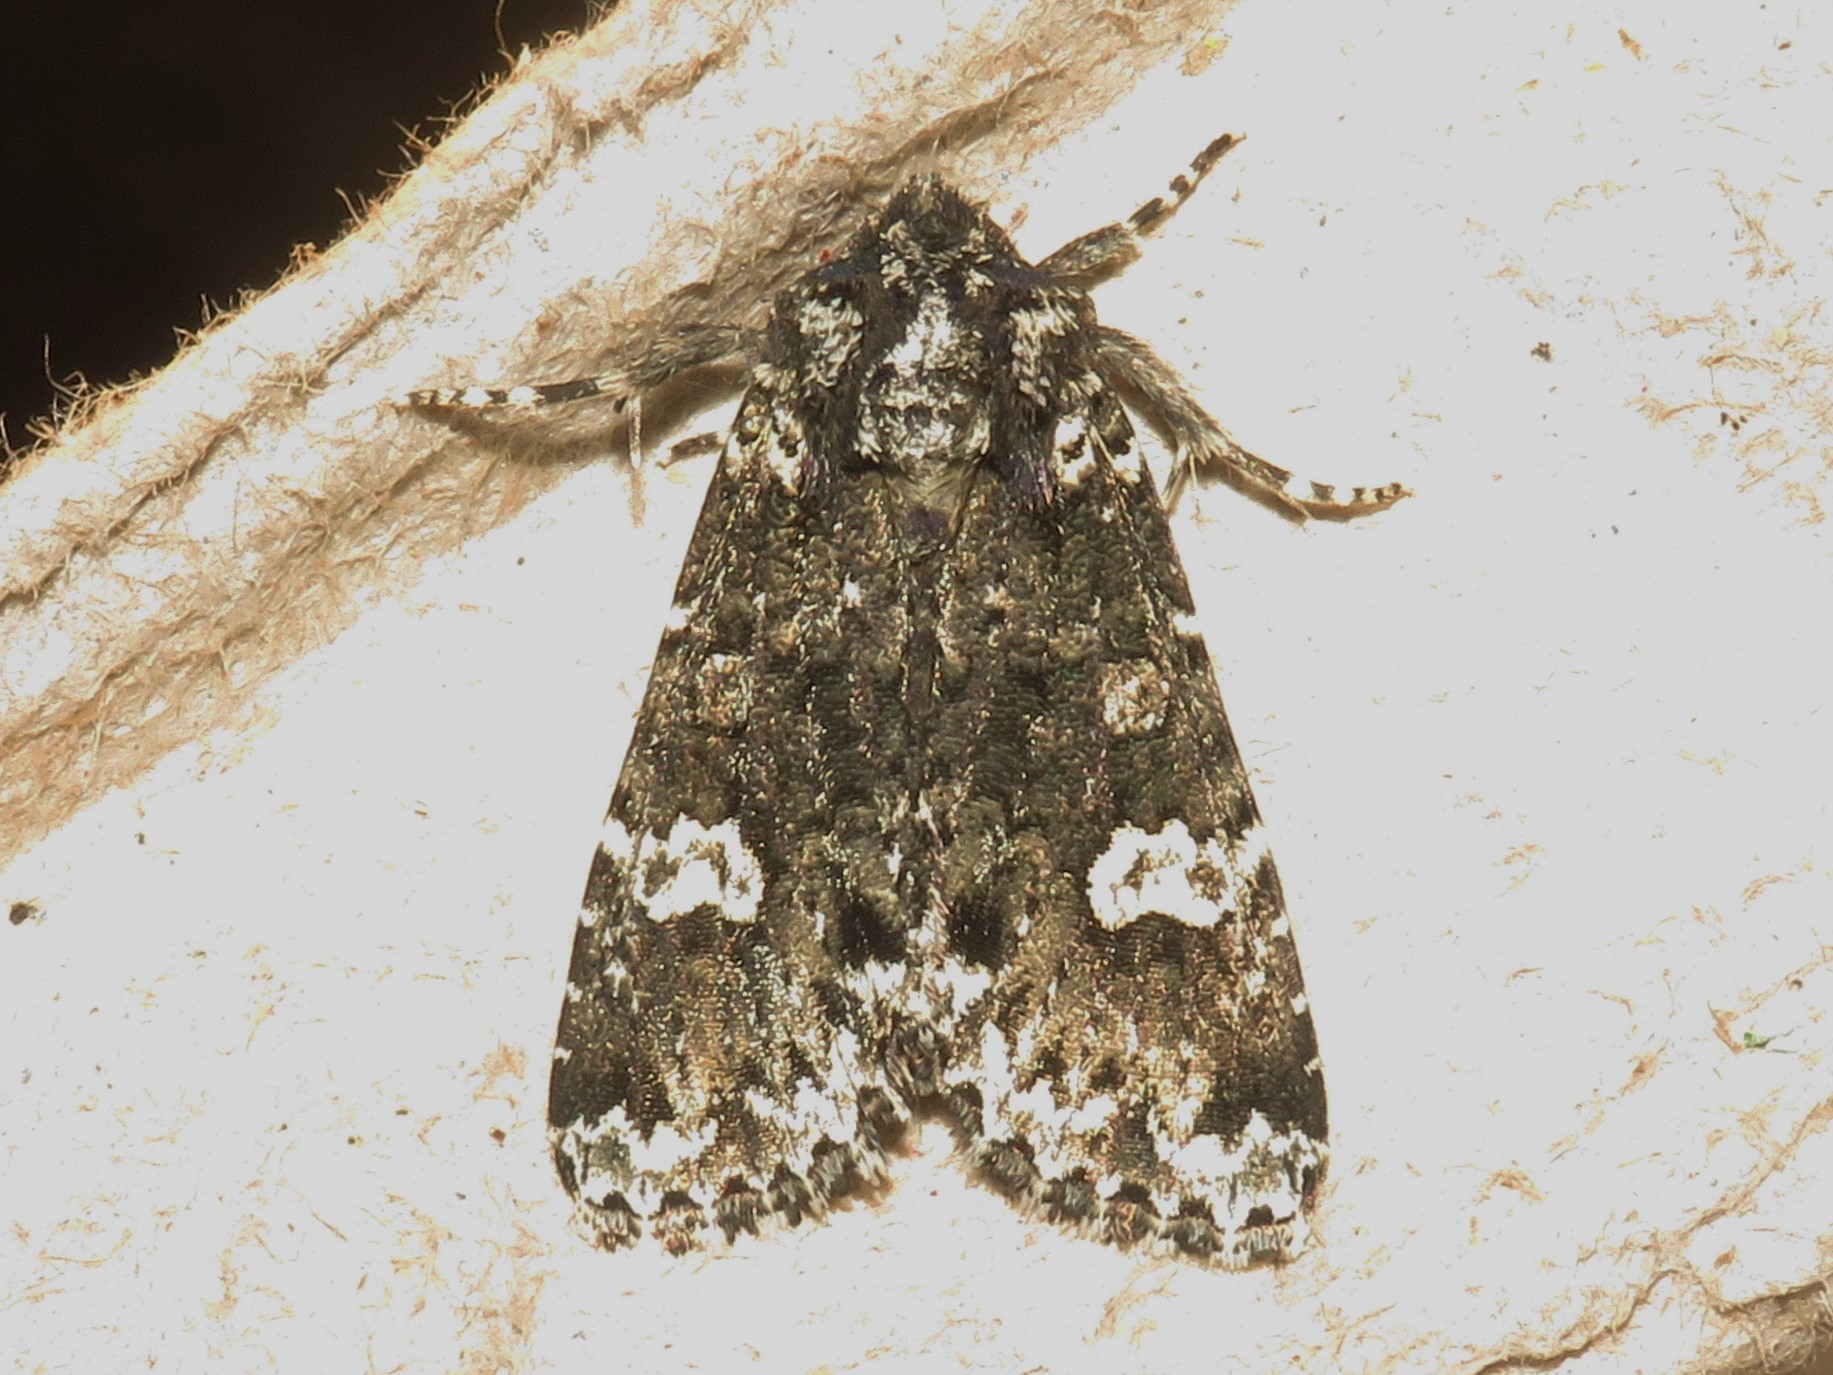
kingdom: Animalia
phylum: Arthropoda
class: Insecta
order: Lepidoptera
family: Noctuidae
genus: Melanchra
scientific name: Melanchra adjuncta
